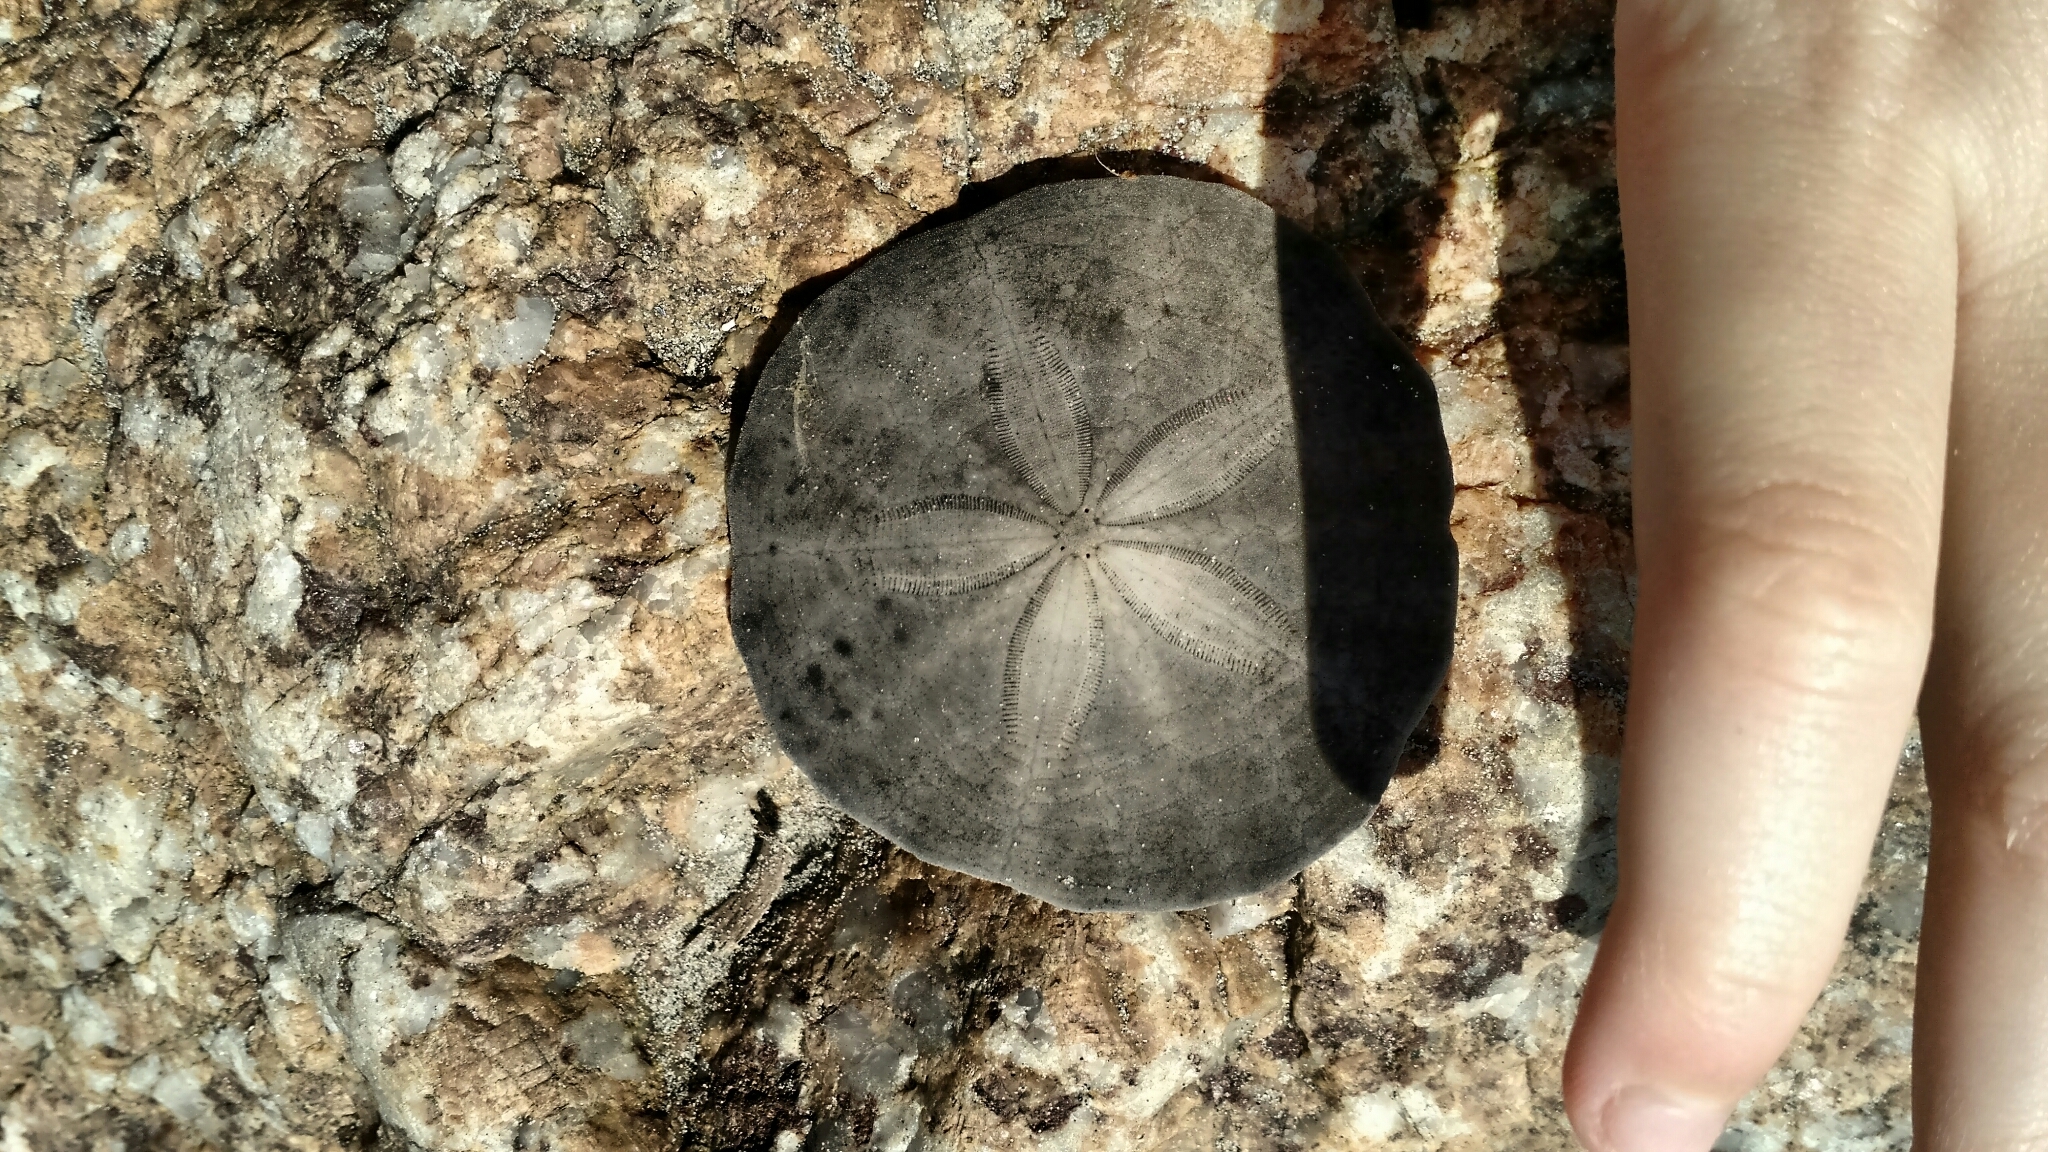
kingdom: Animalia
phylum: Echinodermata
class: Echinoidea
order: Echinolampadacea
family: Echinarachniidae
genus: Echinarachnius
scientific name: Echinarachnius parma
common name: Common sand dollar
